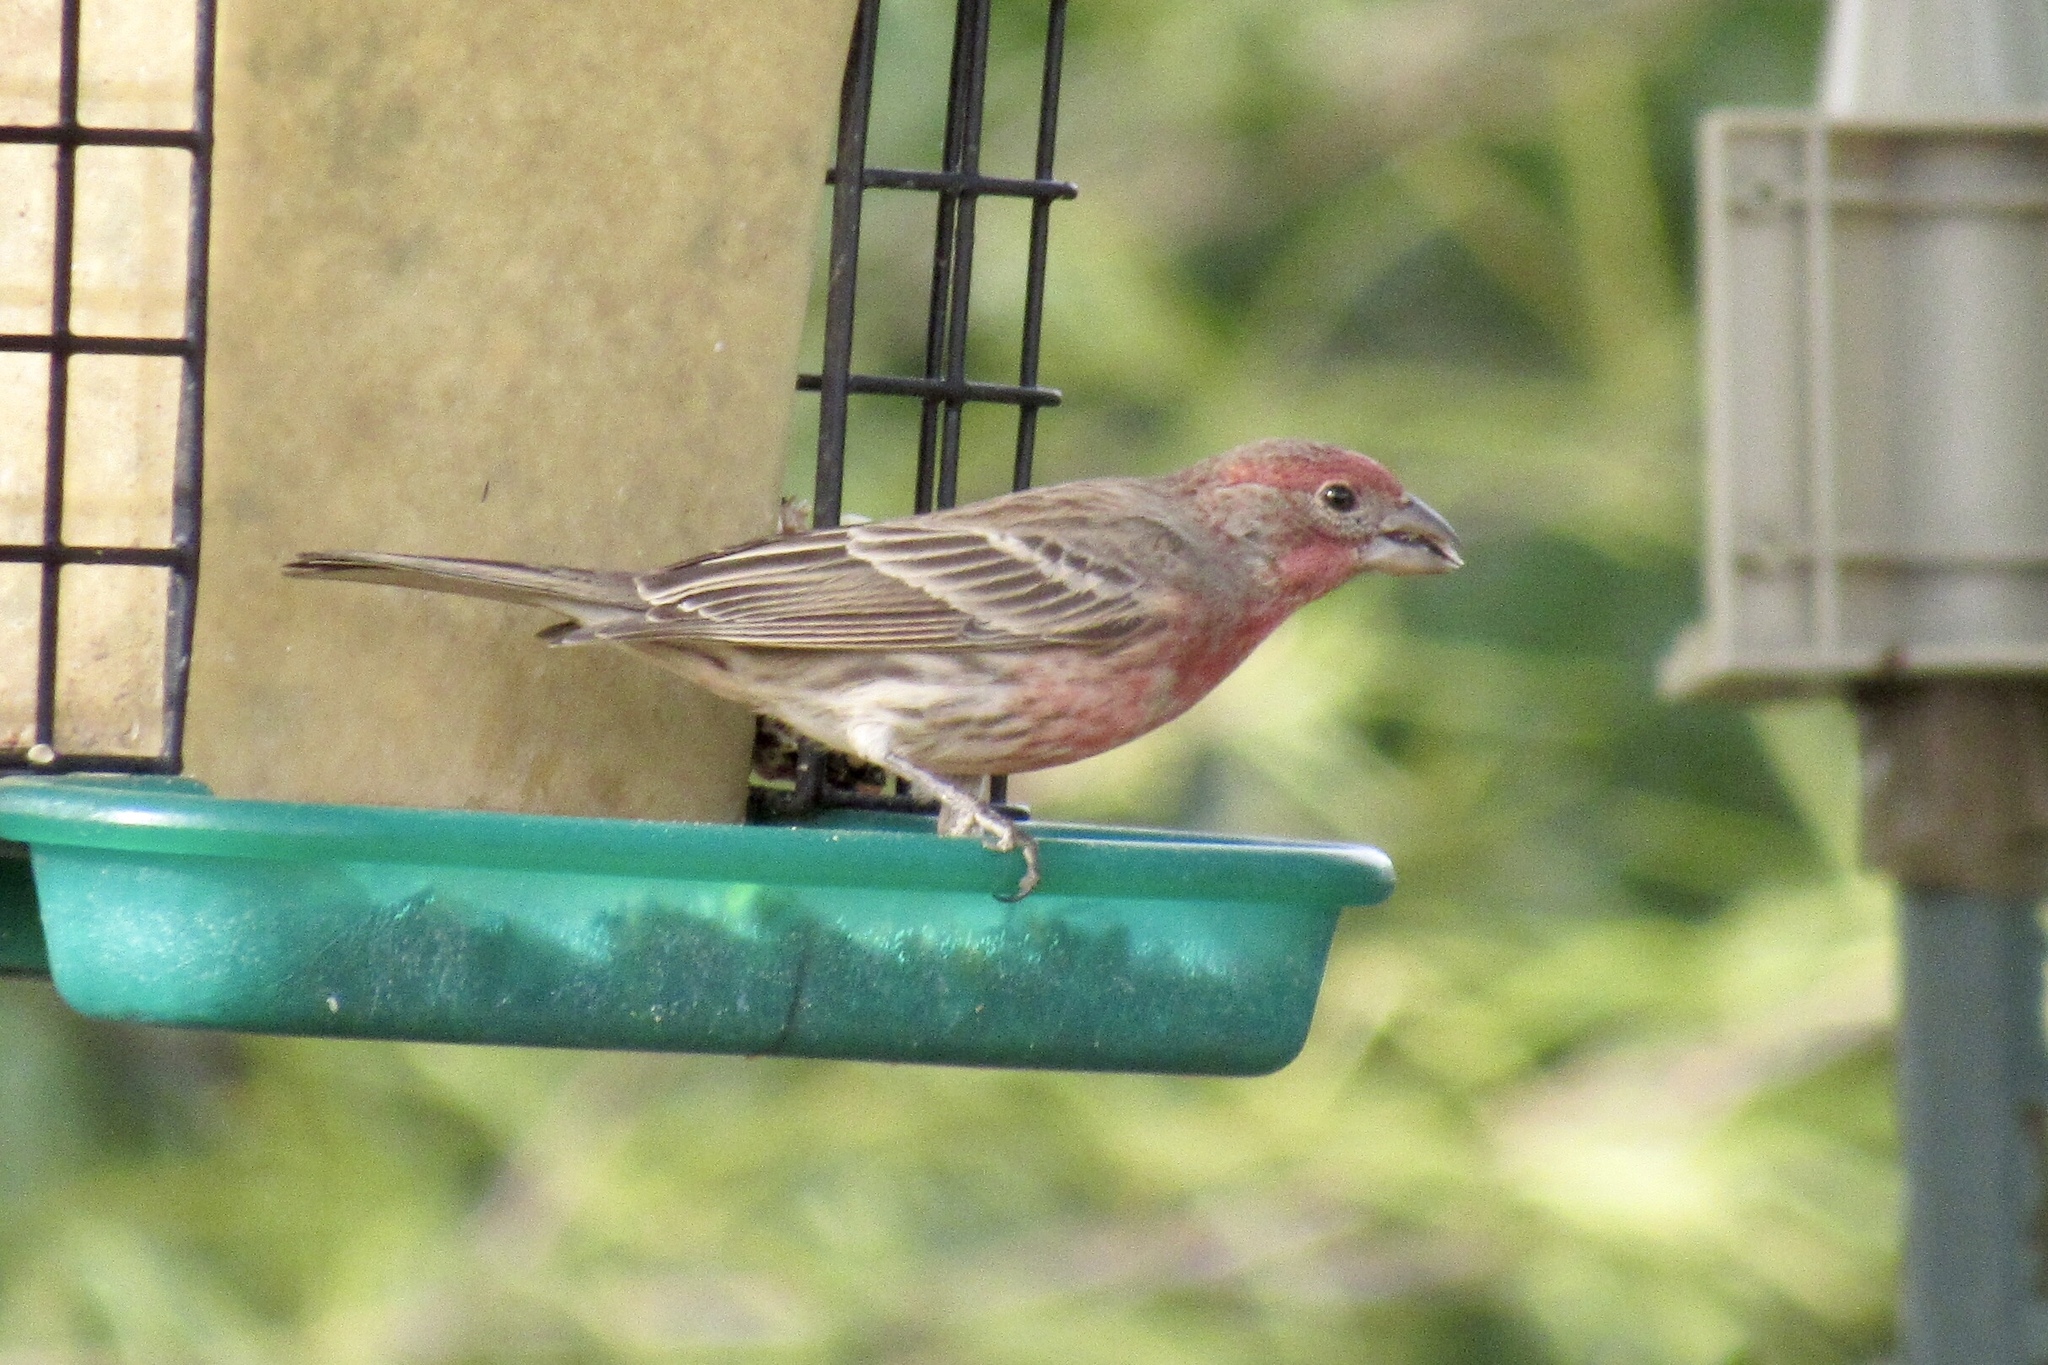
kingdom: Animalia
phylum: Chordata
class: Aves
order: Passeriformes
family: Fringillidae
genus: Haemorhous
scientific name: Haemorhous mexicanus
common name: House finch
